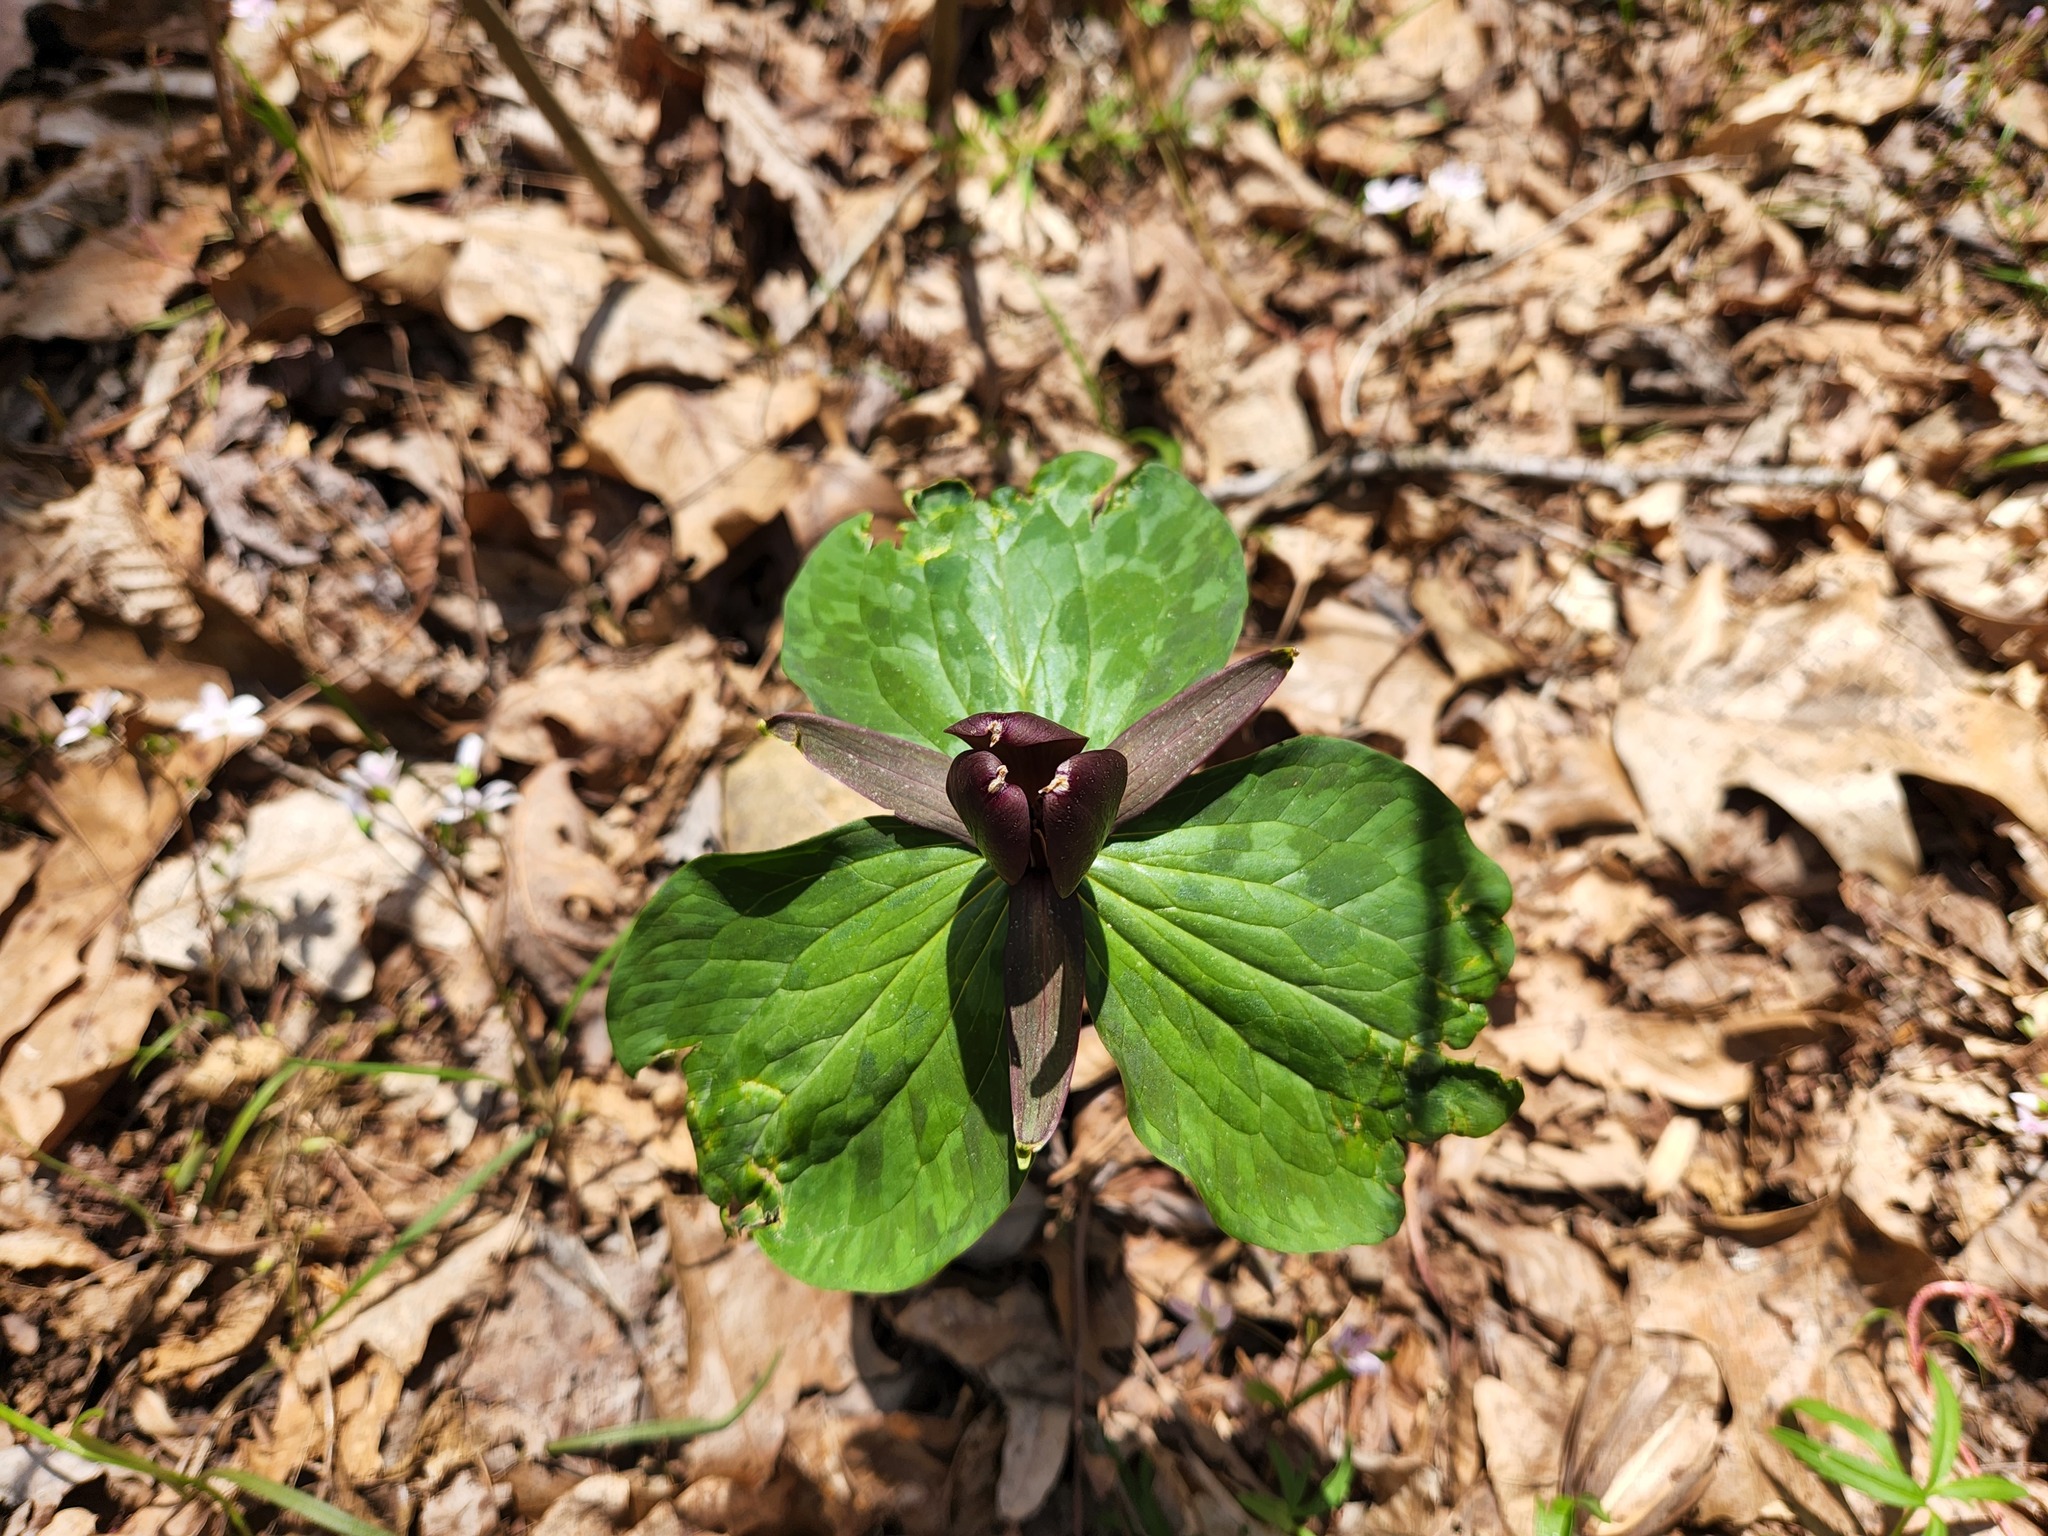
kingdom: Plantae
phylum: Tracheophyta
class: Liliopsida
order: Liliales
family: Melanthiaceae
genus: Trillium
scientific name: Trillium cuneatum
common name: Cuneate trillium
